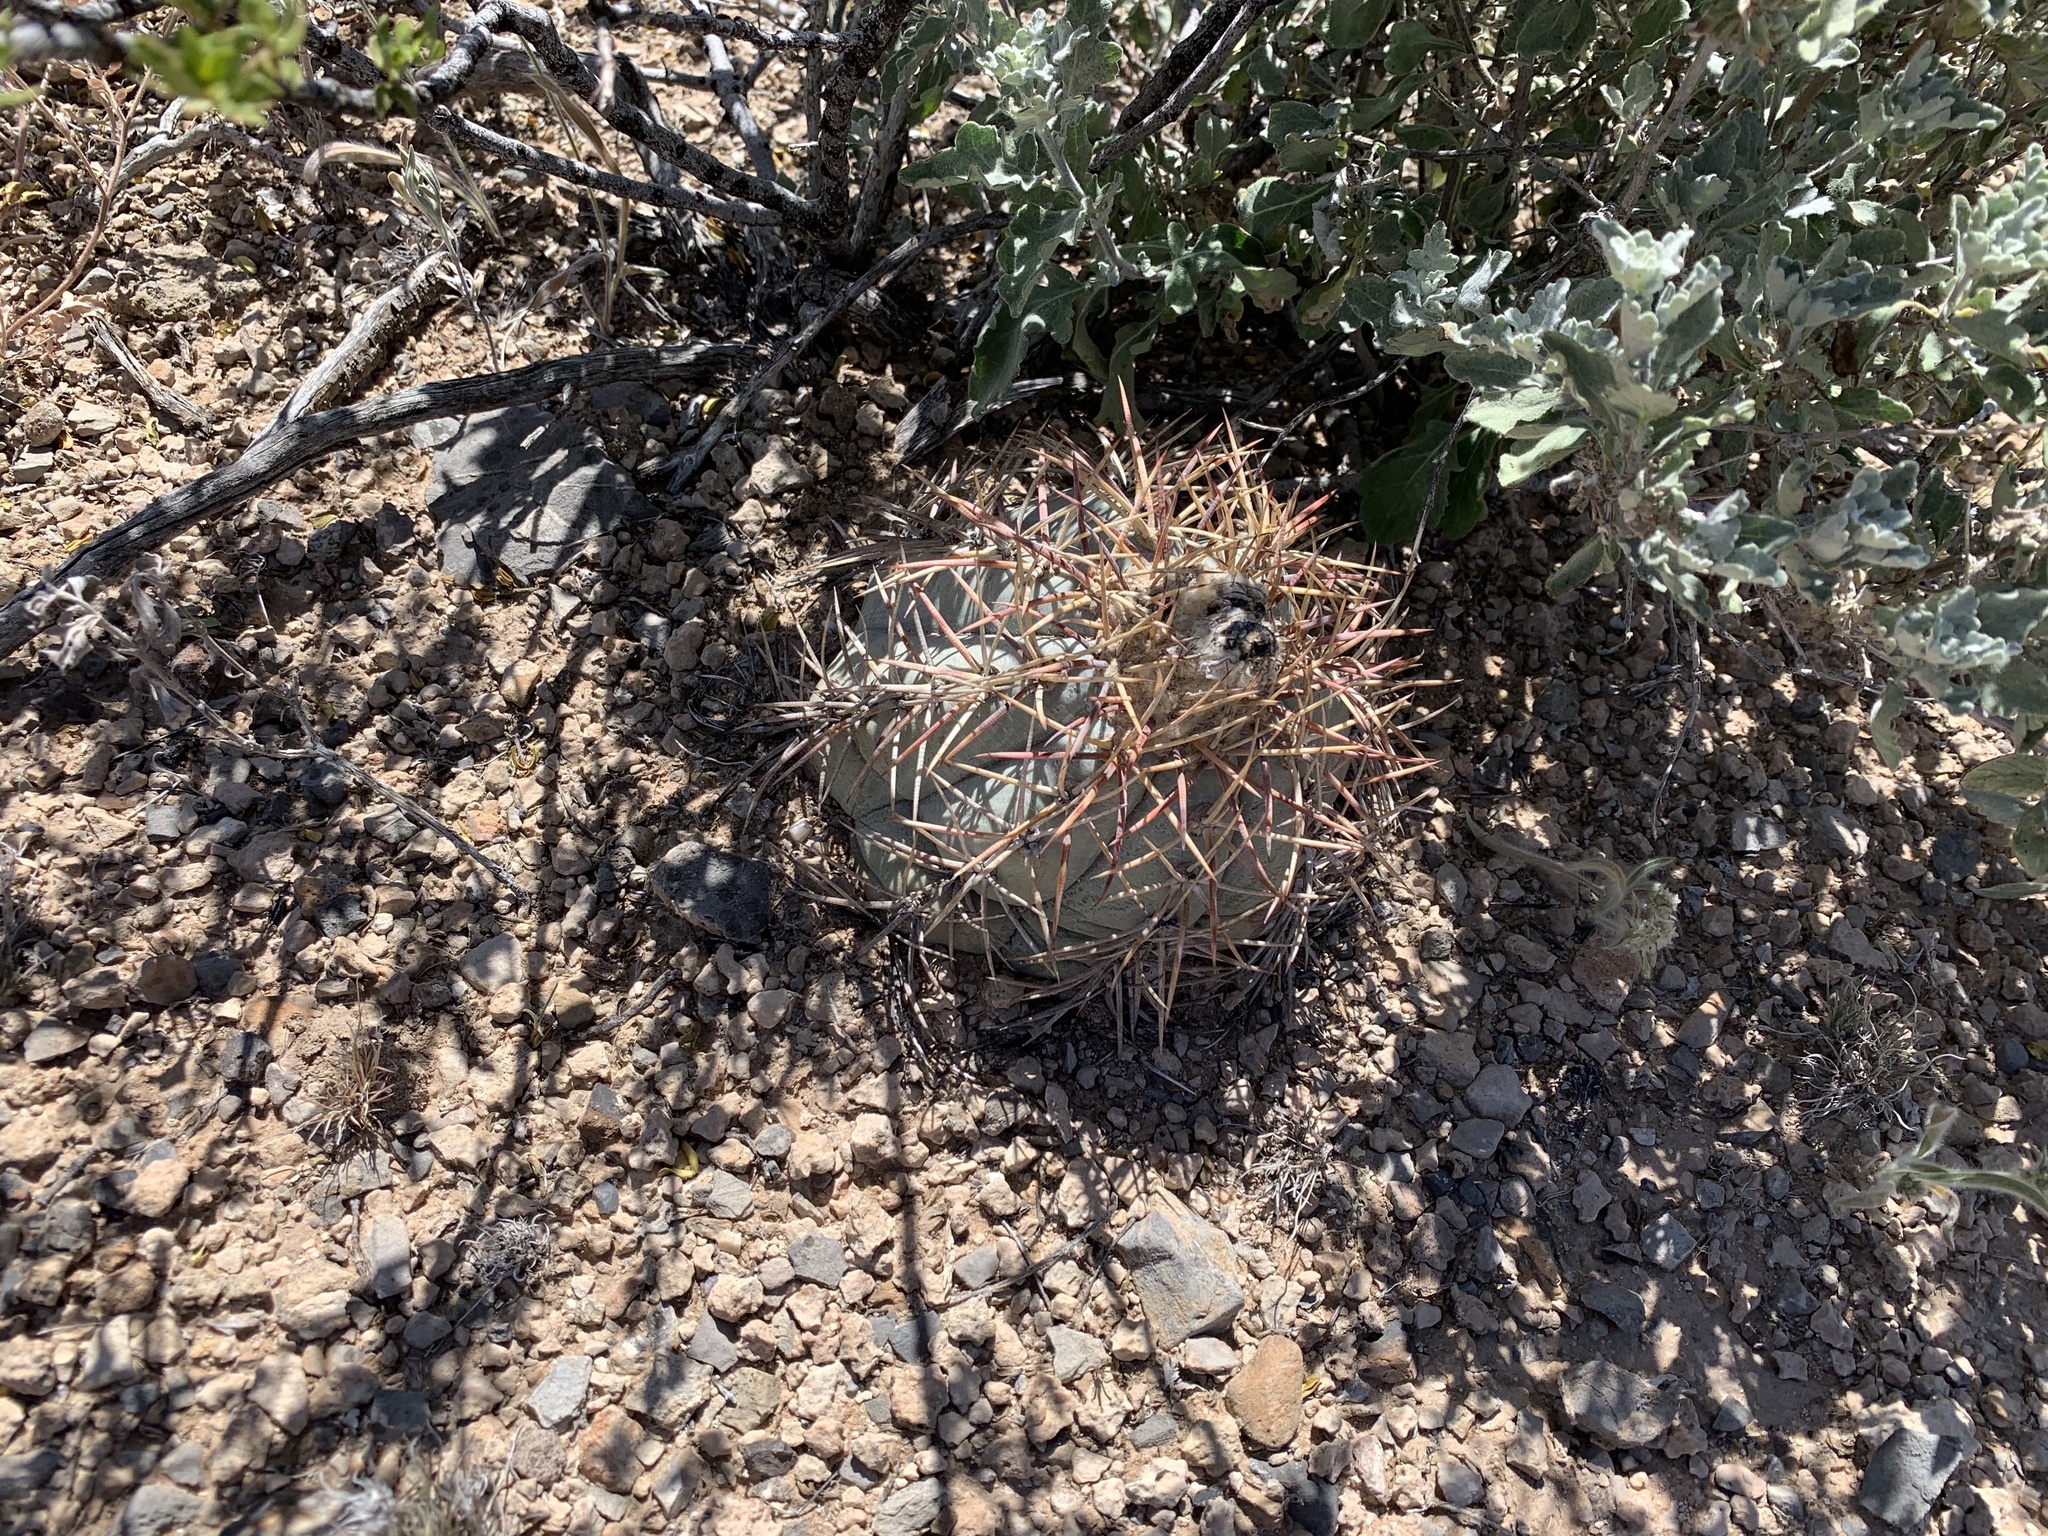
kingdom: Plantae
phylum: Tracheophyta
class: Magnoliopsida
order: Caryophyllales
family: Cactaceae
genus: Echinocactus
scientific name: Echinocactus horizonthalonius
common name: Devilshead
